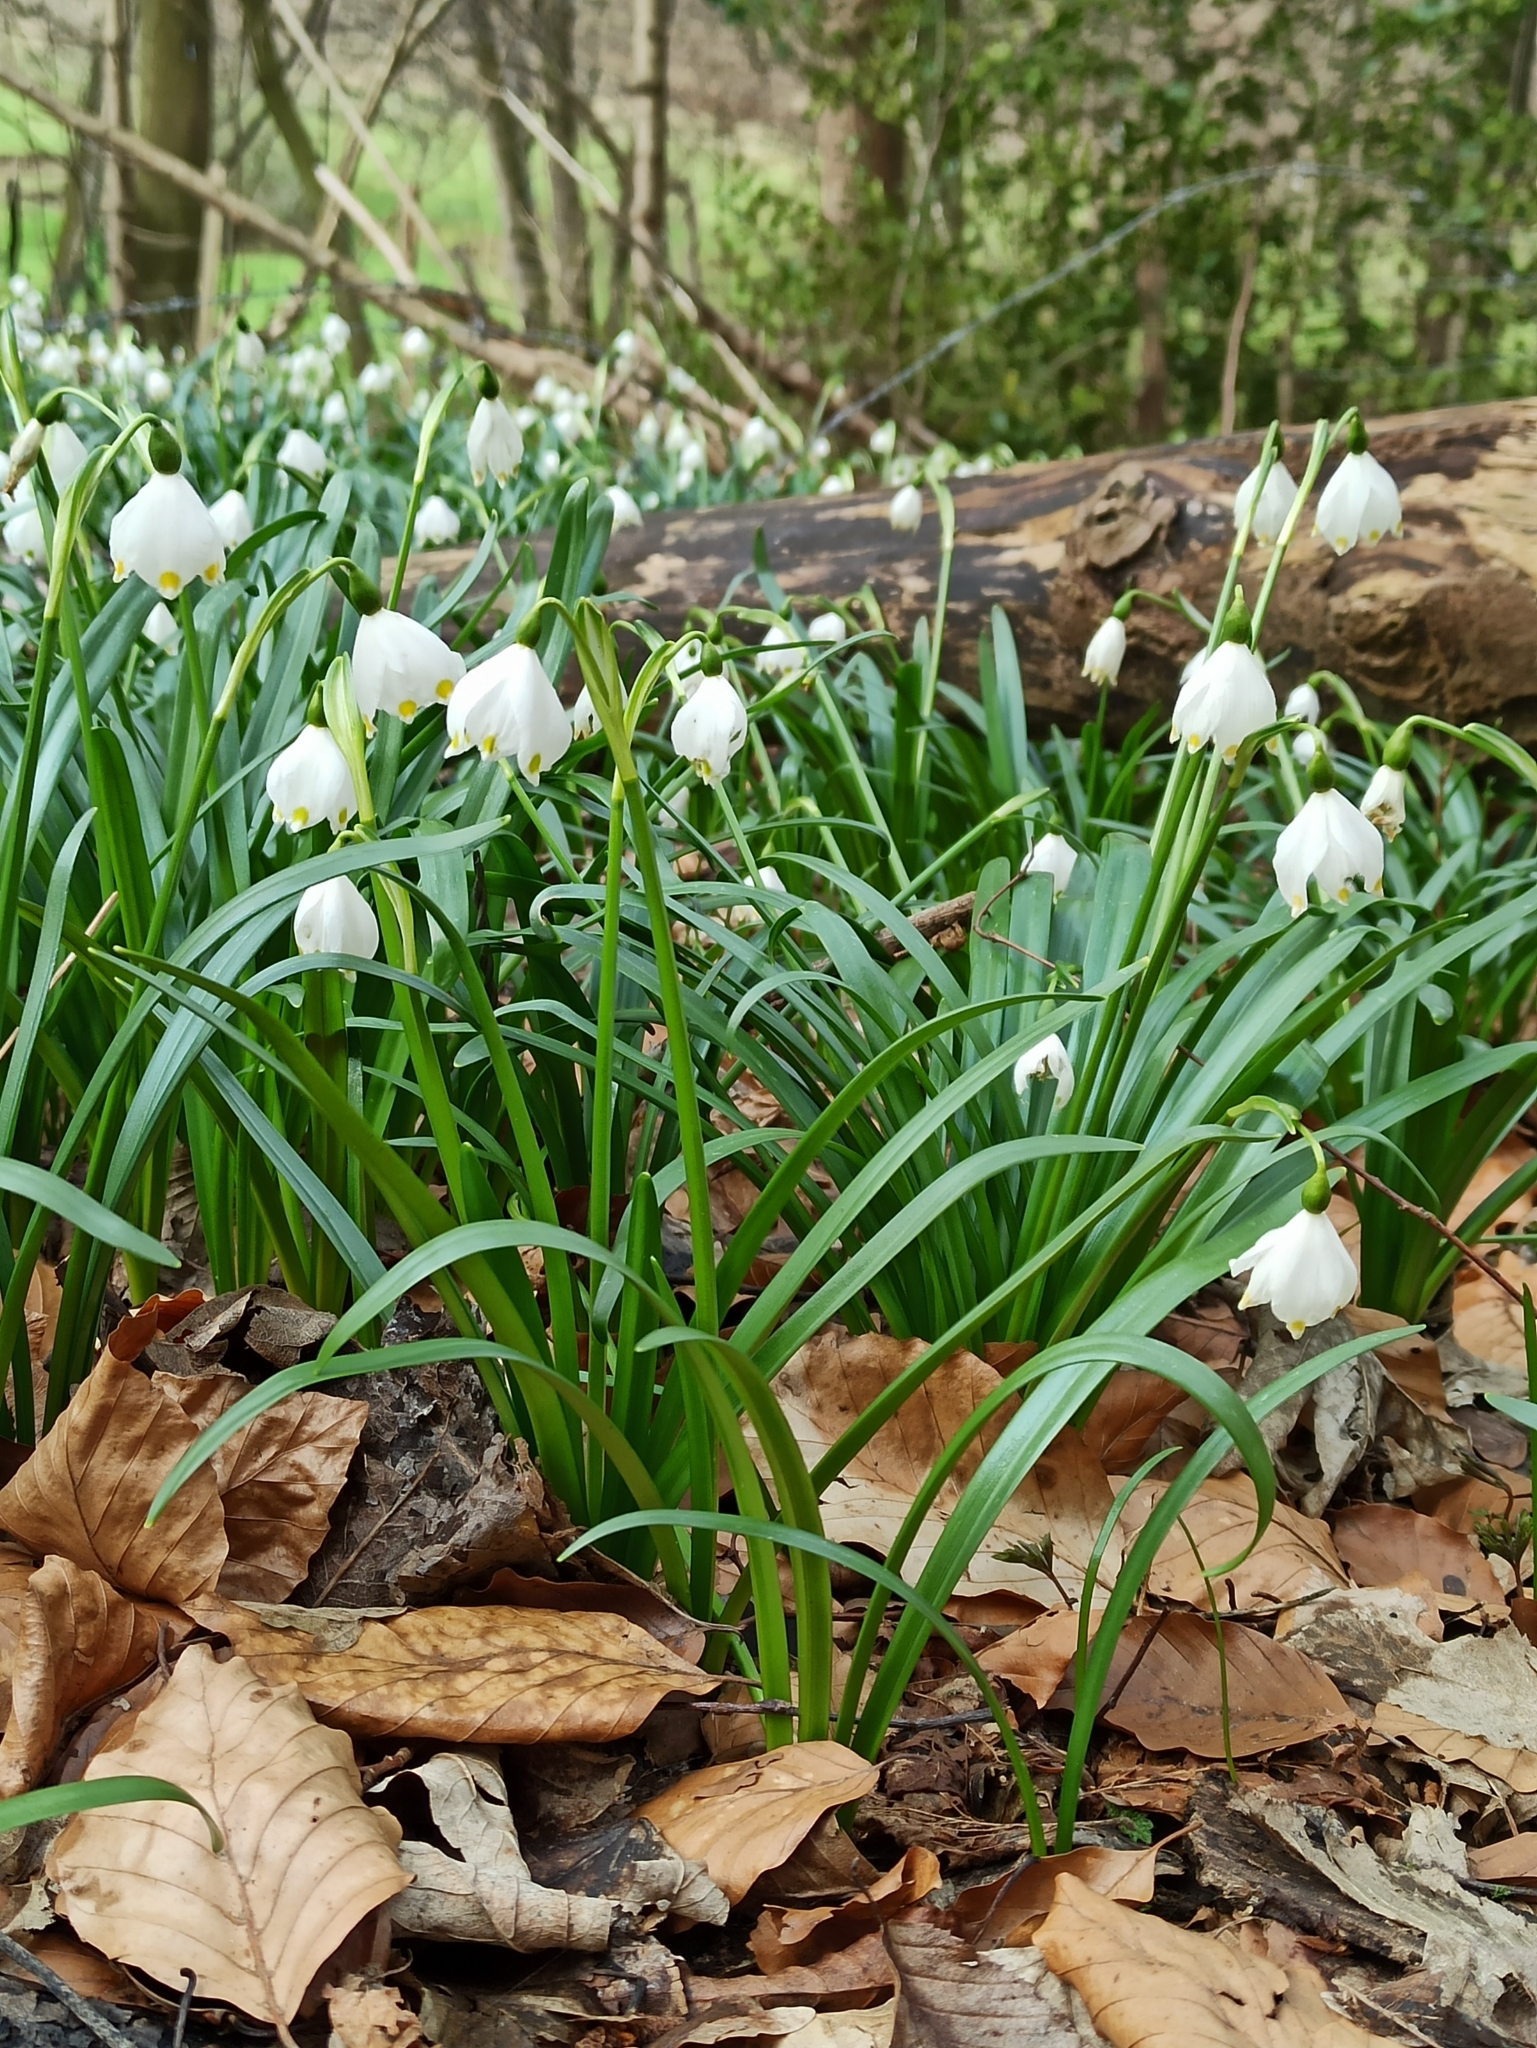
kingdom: Plantae
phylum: Tracheophyta
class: Liliopsida
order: Asparagales
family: Amaryllidaceae
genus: Leucojum
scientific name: Leucojum vernum
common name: Spring snowflake
